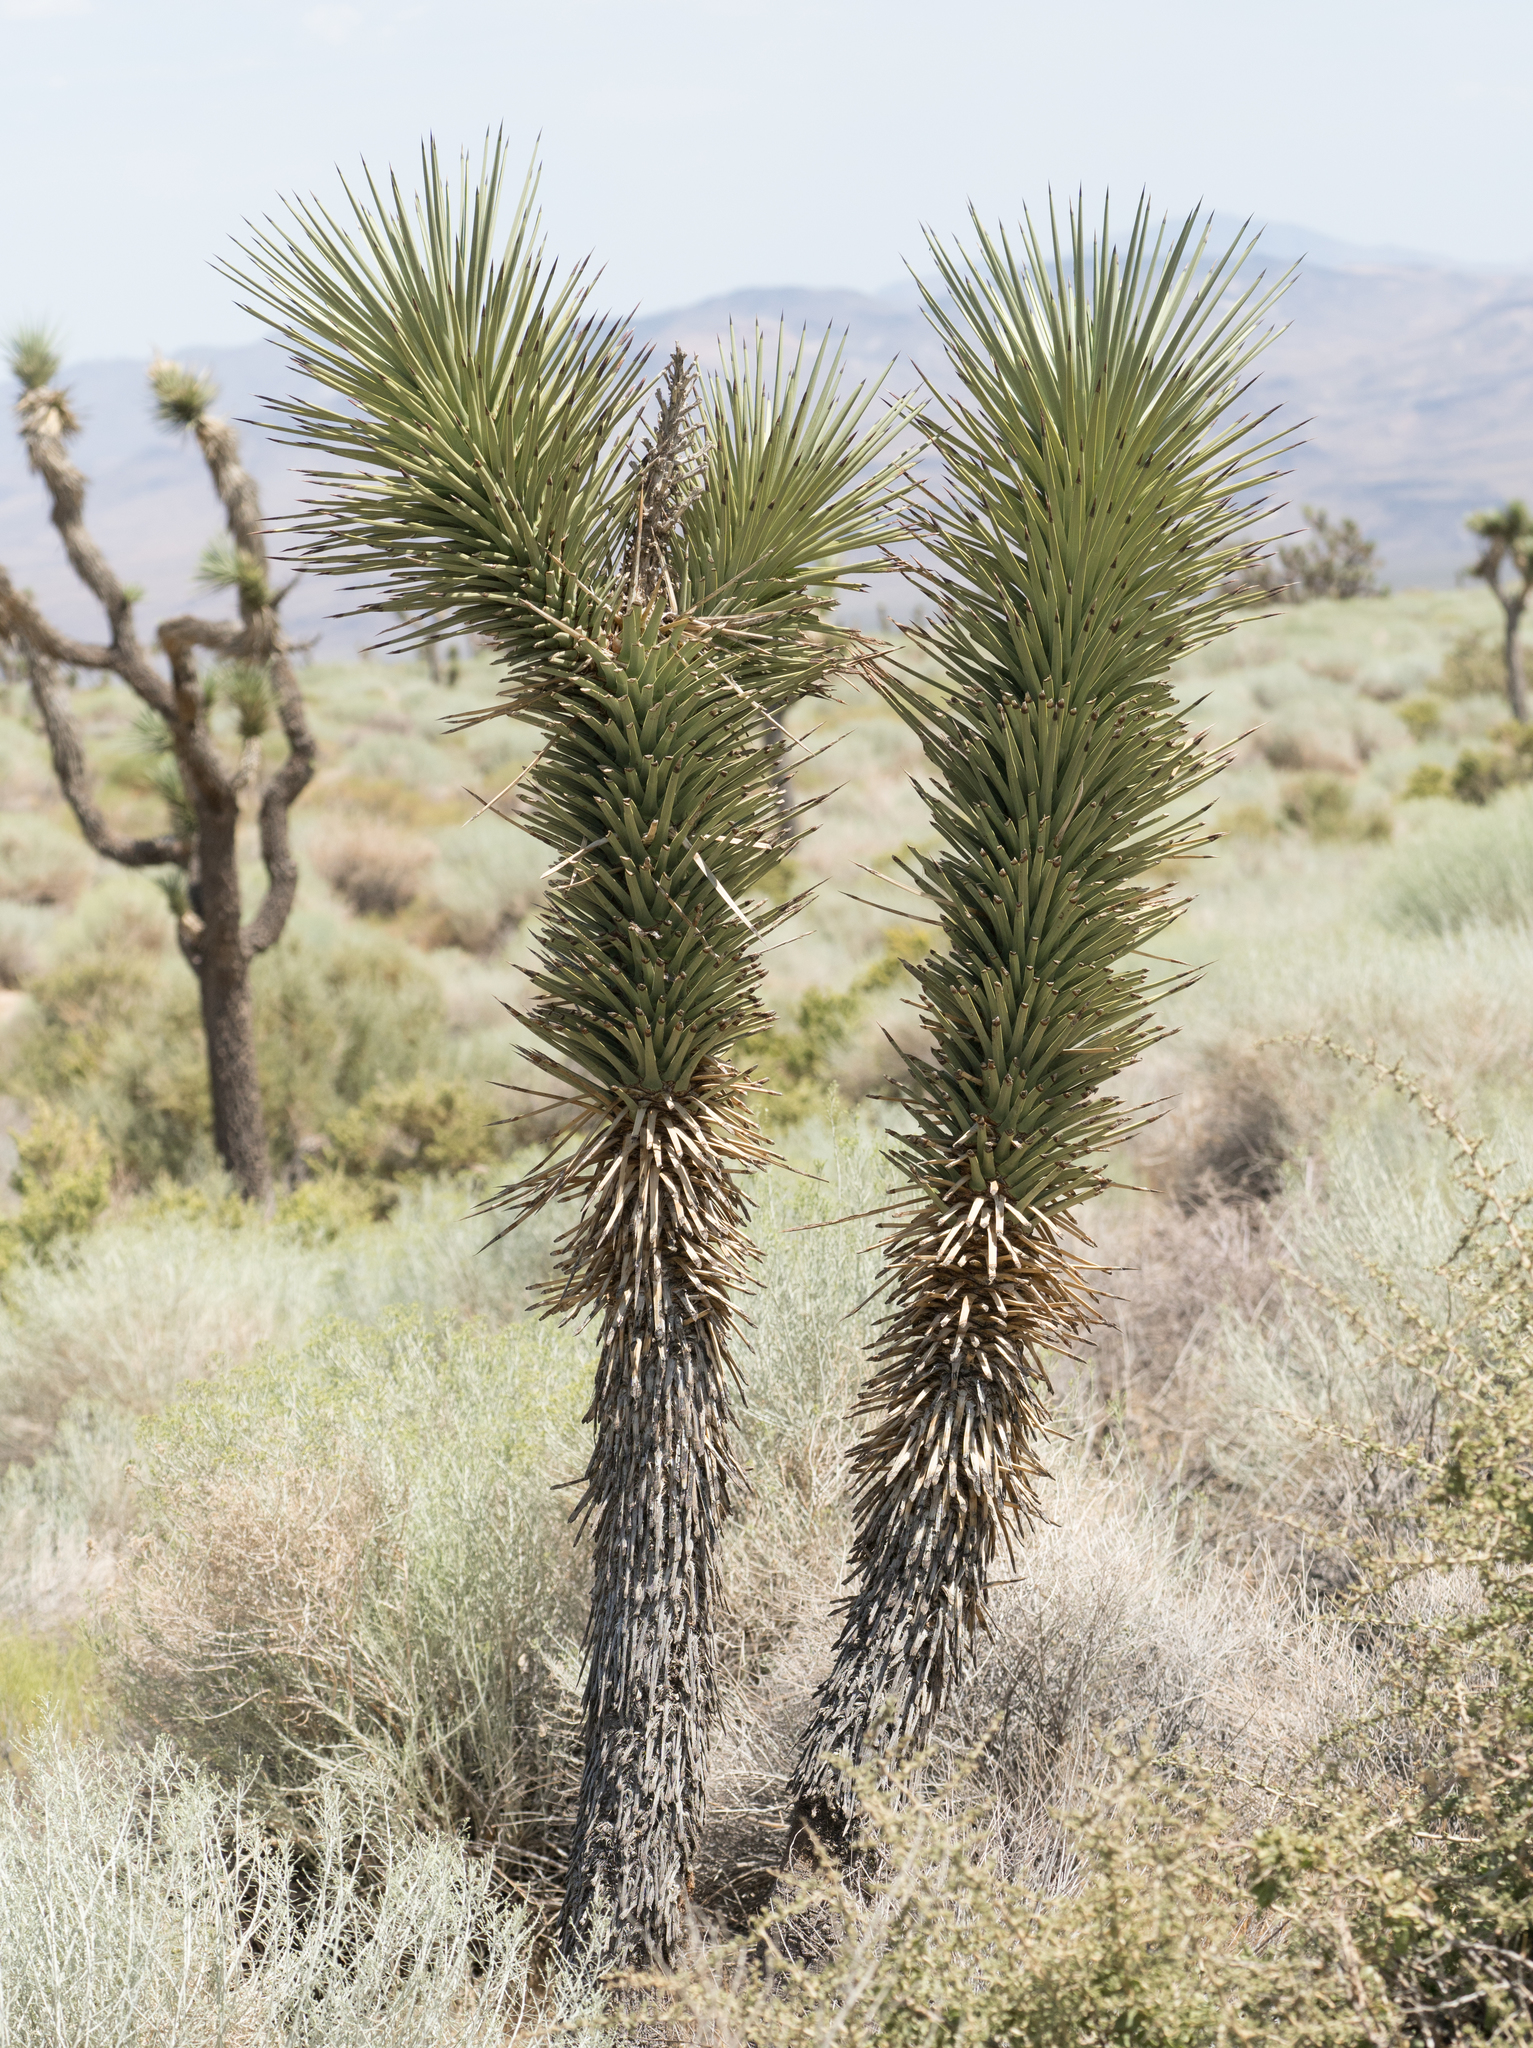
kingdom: Plantae
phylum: Tracheophyta
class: Liliopsida
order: Asparagales
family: Asparagaceae
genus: Yucca
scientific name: Yucca brevifolia
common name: Joshua tree
